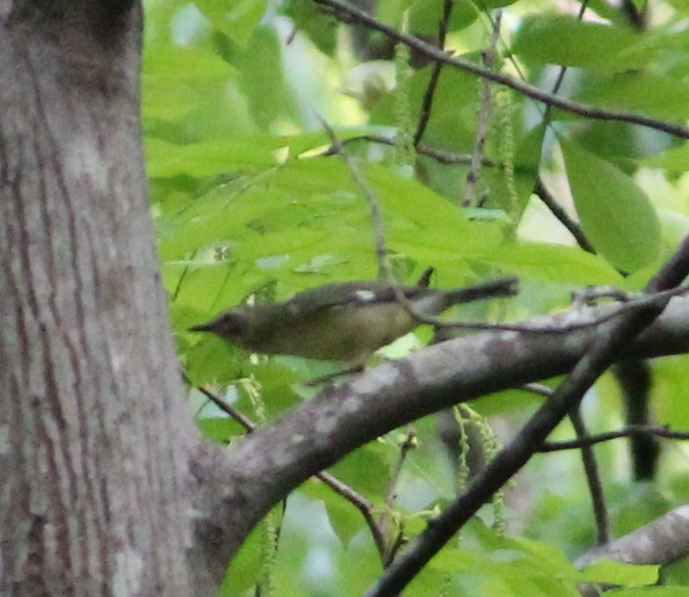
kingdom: Animalia
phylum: Chordata
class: Aves
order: Passeriformes
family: Parulidae
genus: Setophaga
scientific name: Setophaga caerulescens
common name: Black-throated blue warbler
